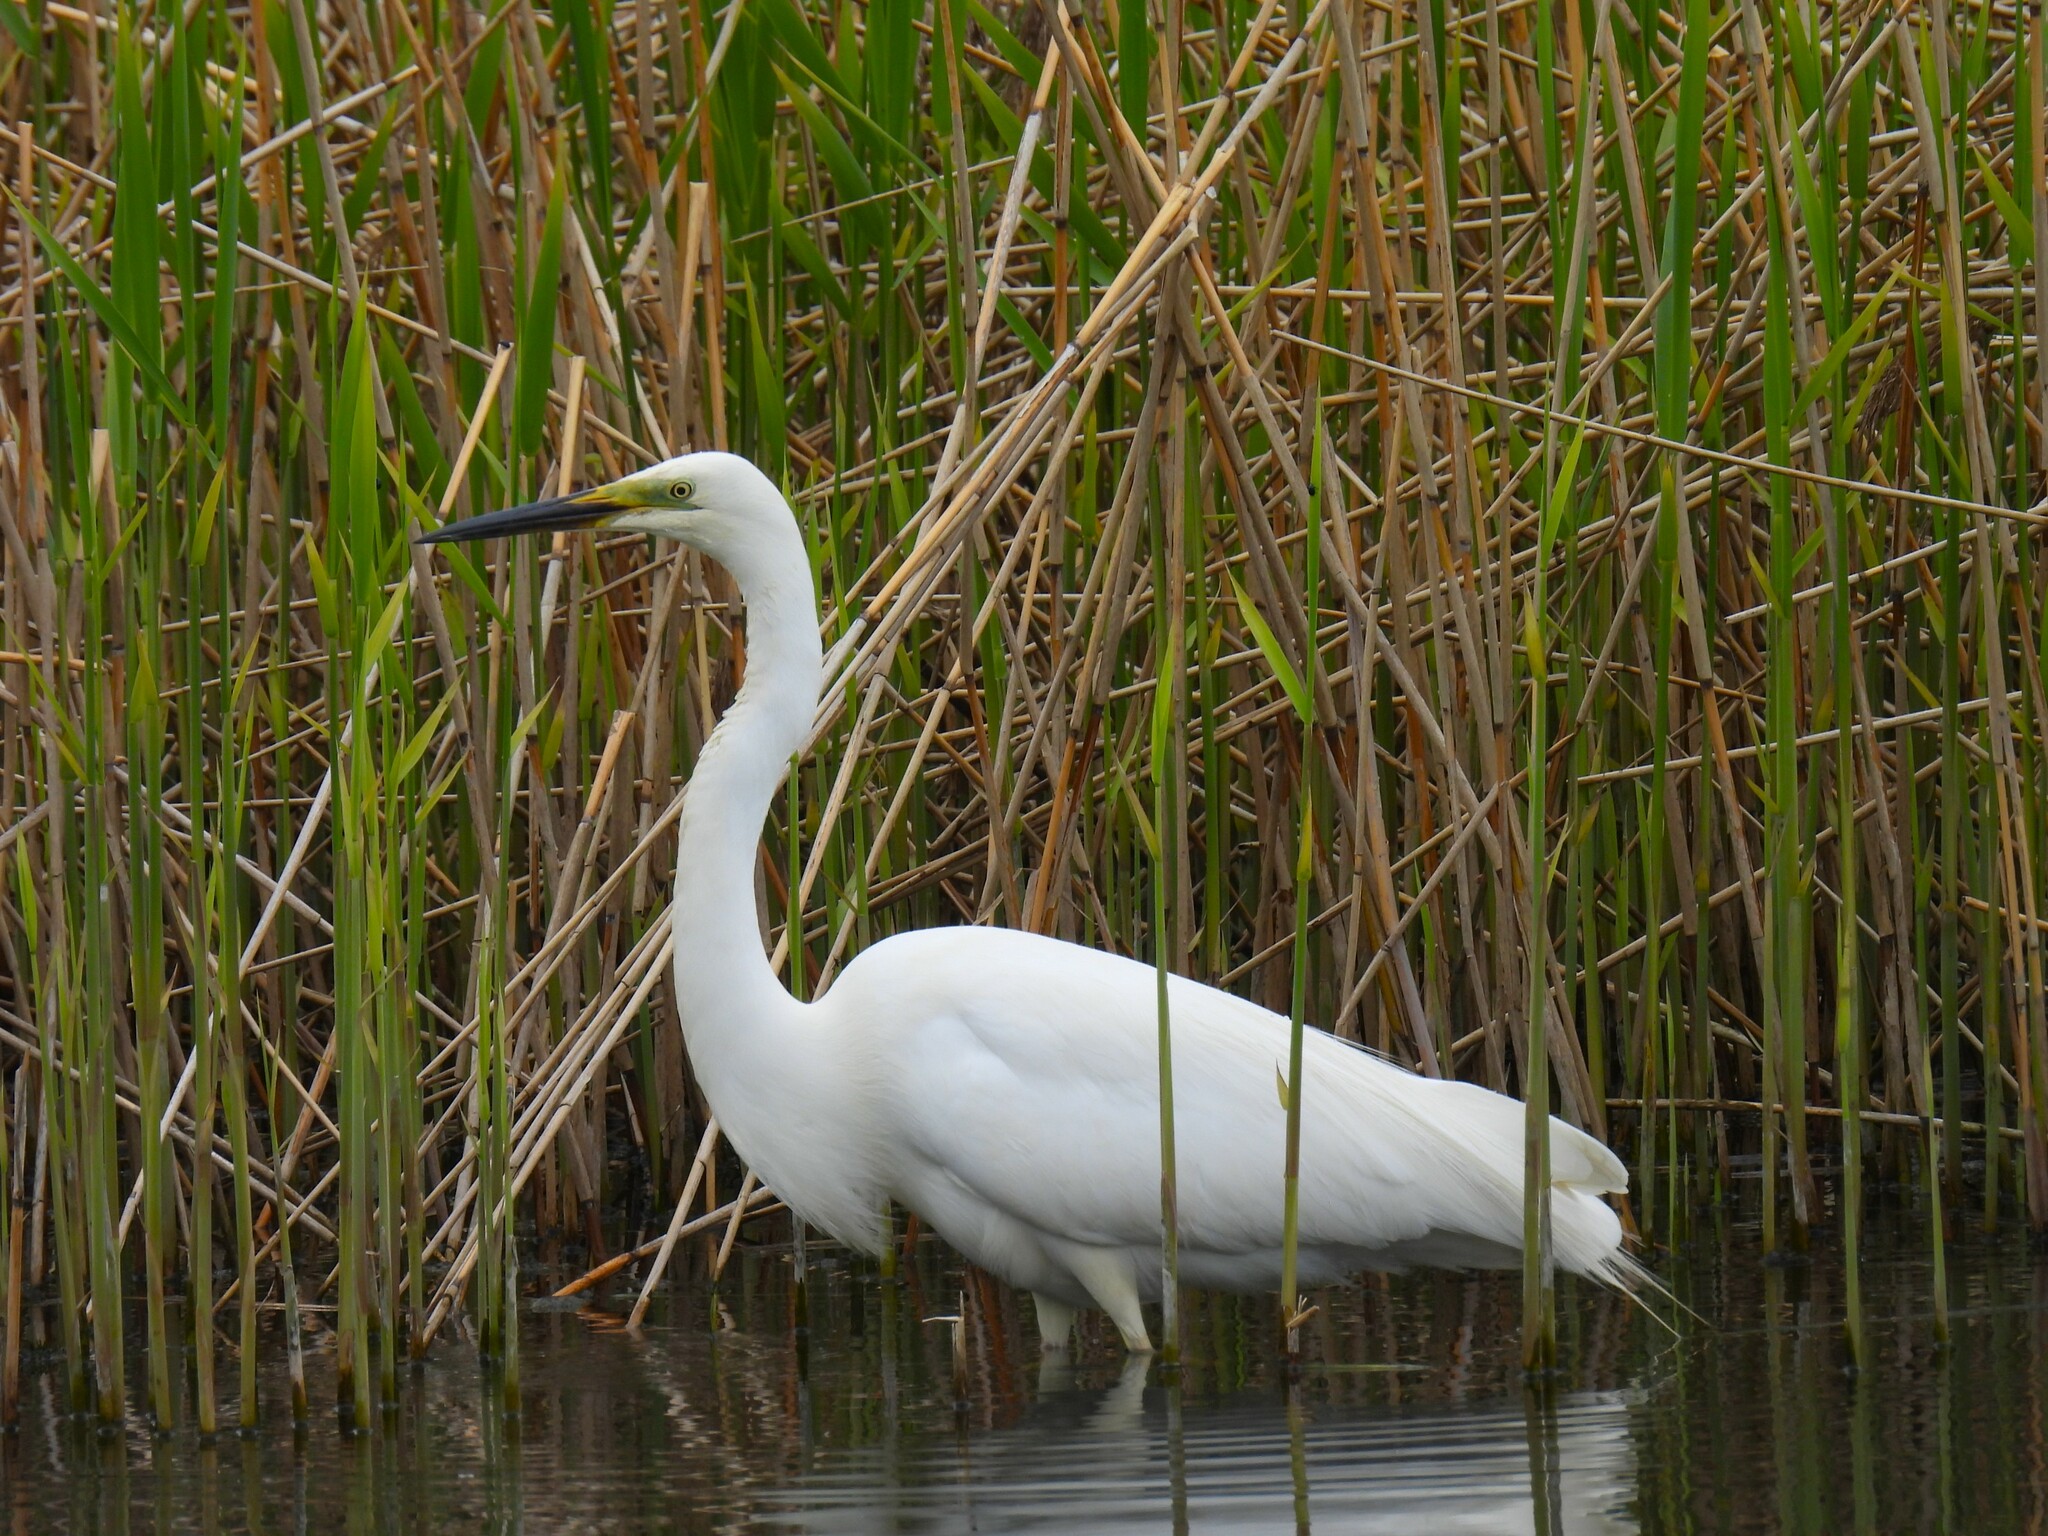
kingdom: Animalia
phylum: Chordata
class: Aves
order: Pelecaniformes
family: Ardeidae
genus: Ardea
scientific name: Ardea alba
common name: Great egret
